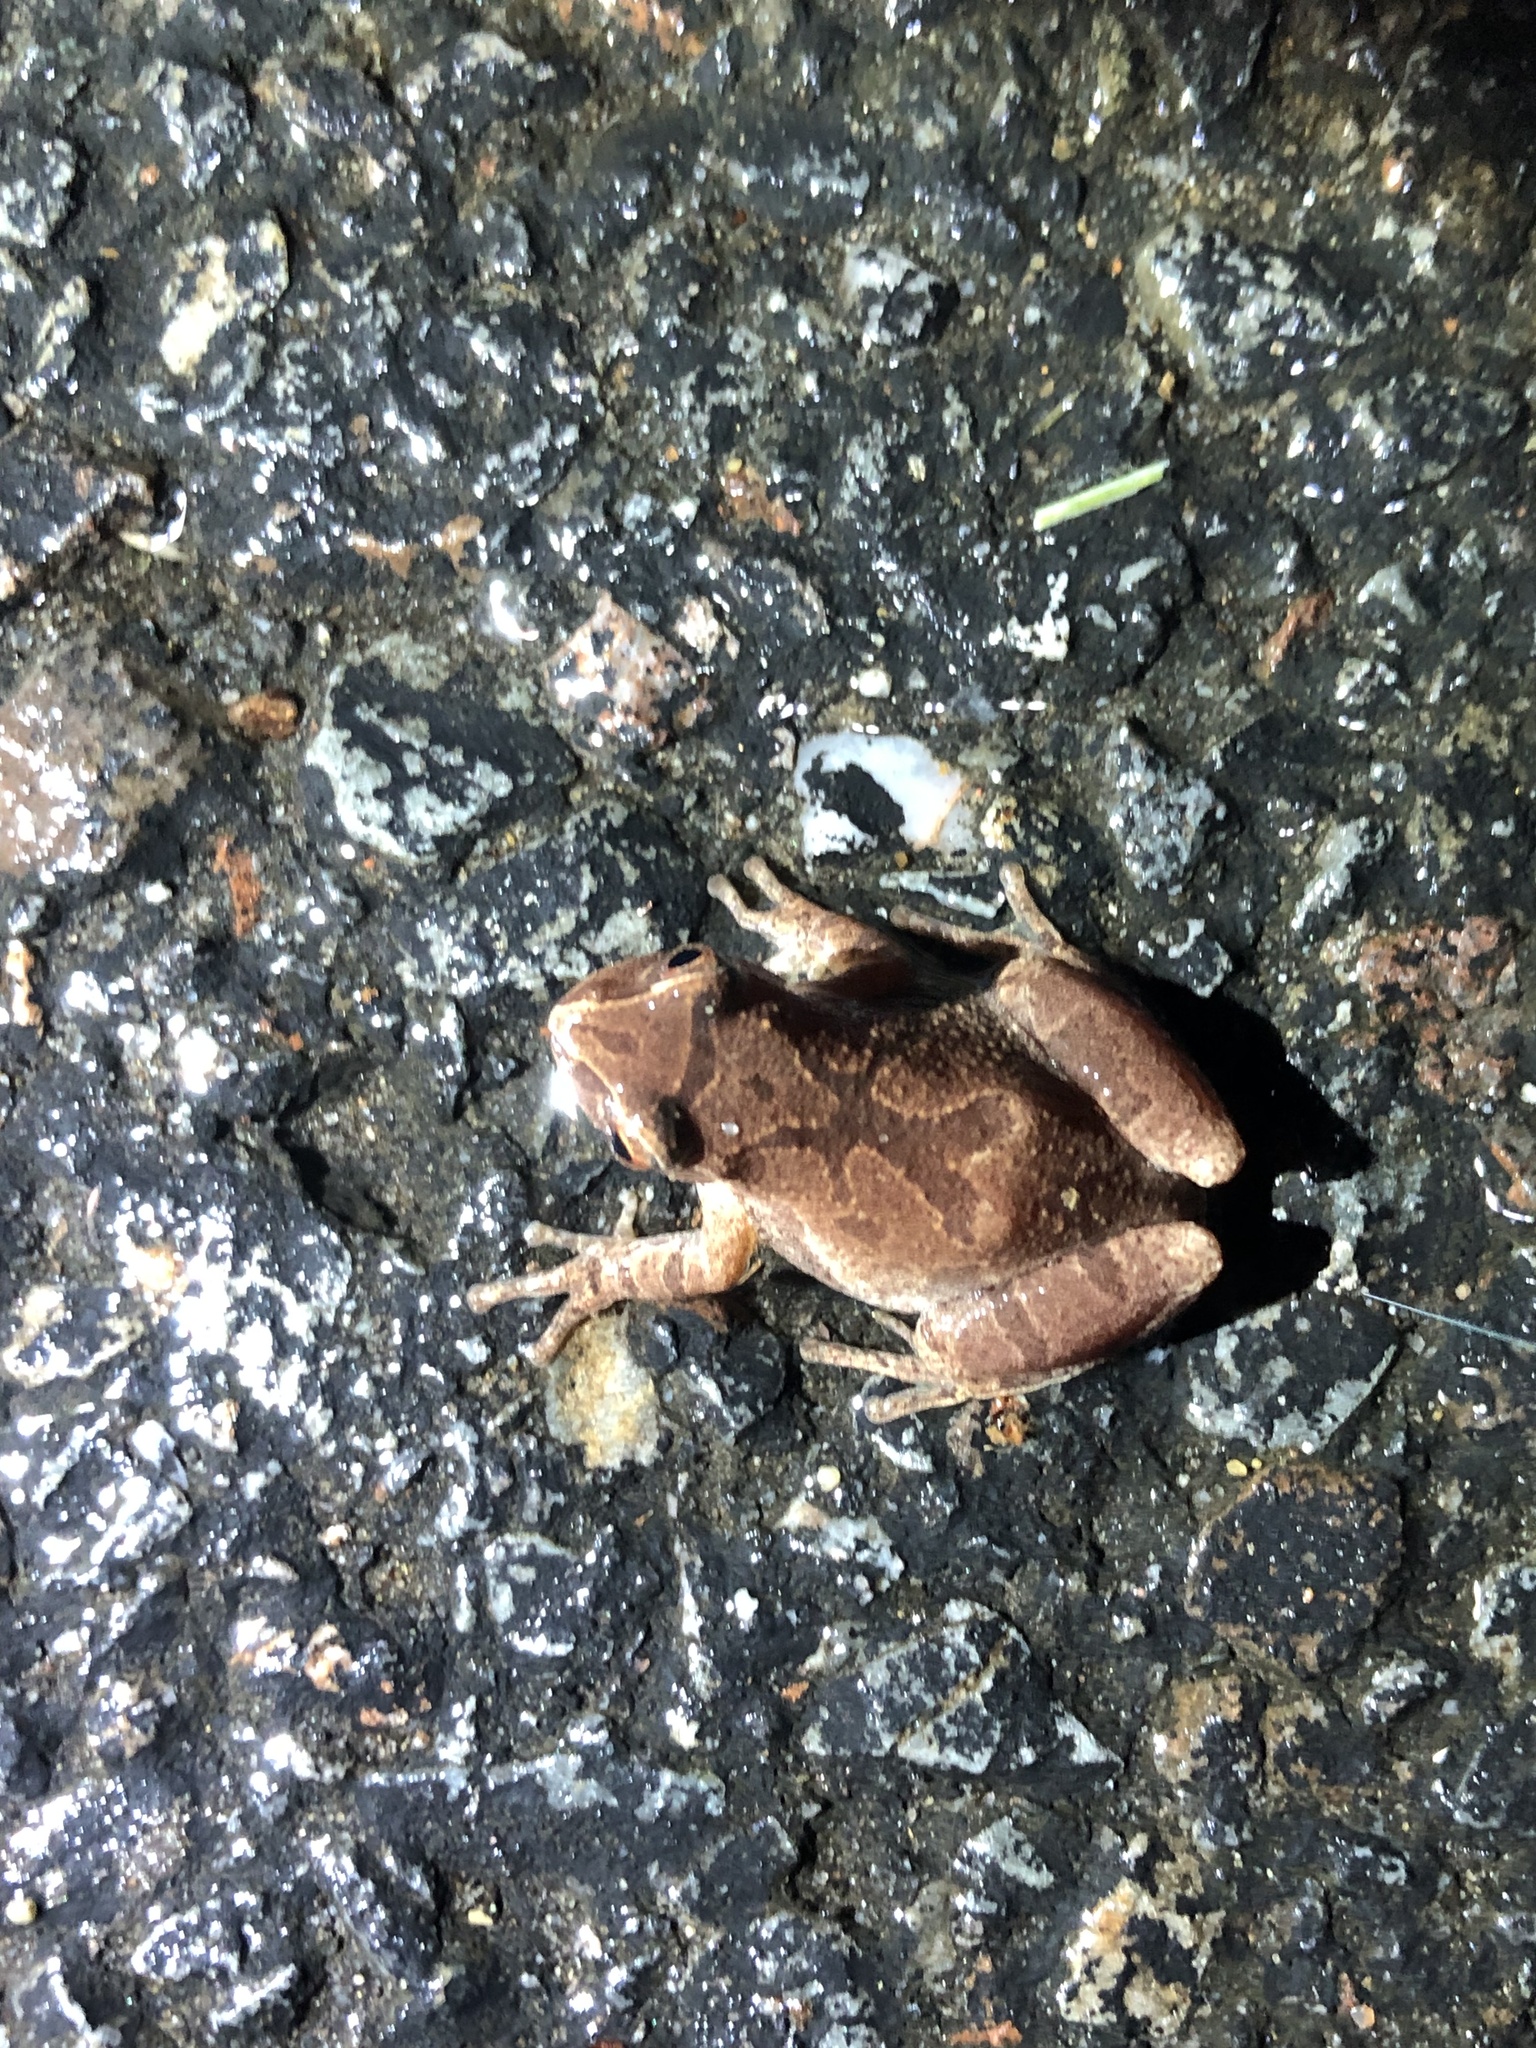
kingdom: Animalia
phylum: Chordata
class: Amphibia
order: Anura
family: Hylidae
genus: Pseudacris
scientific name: Pseudacris crucifer
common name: Spring peeper
